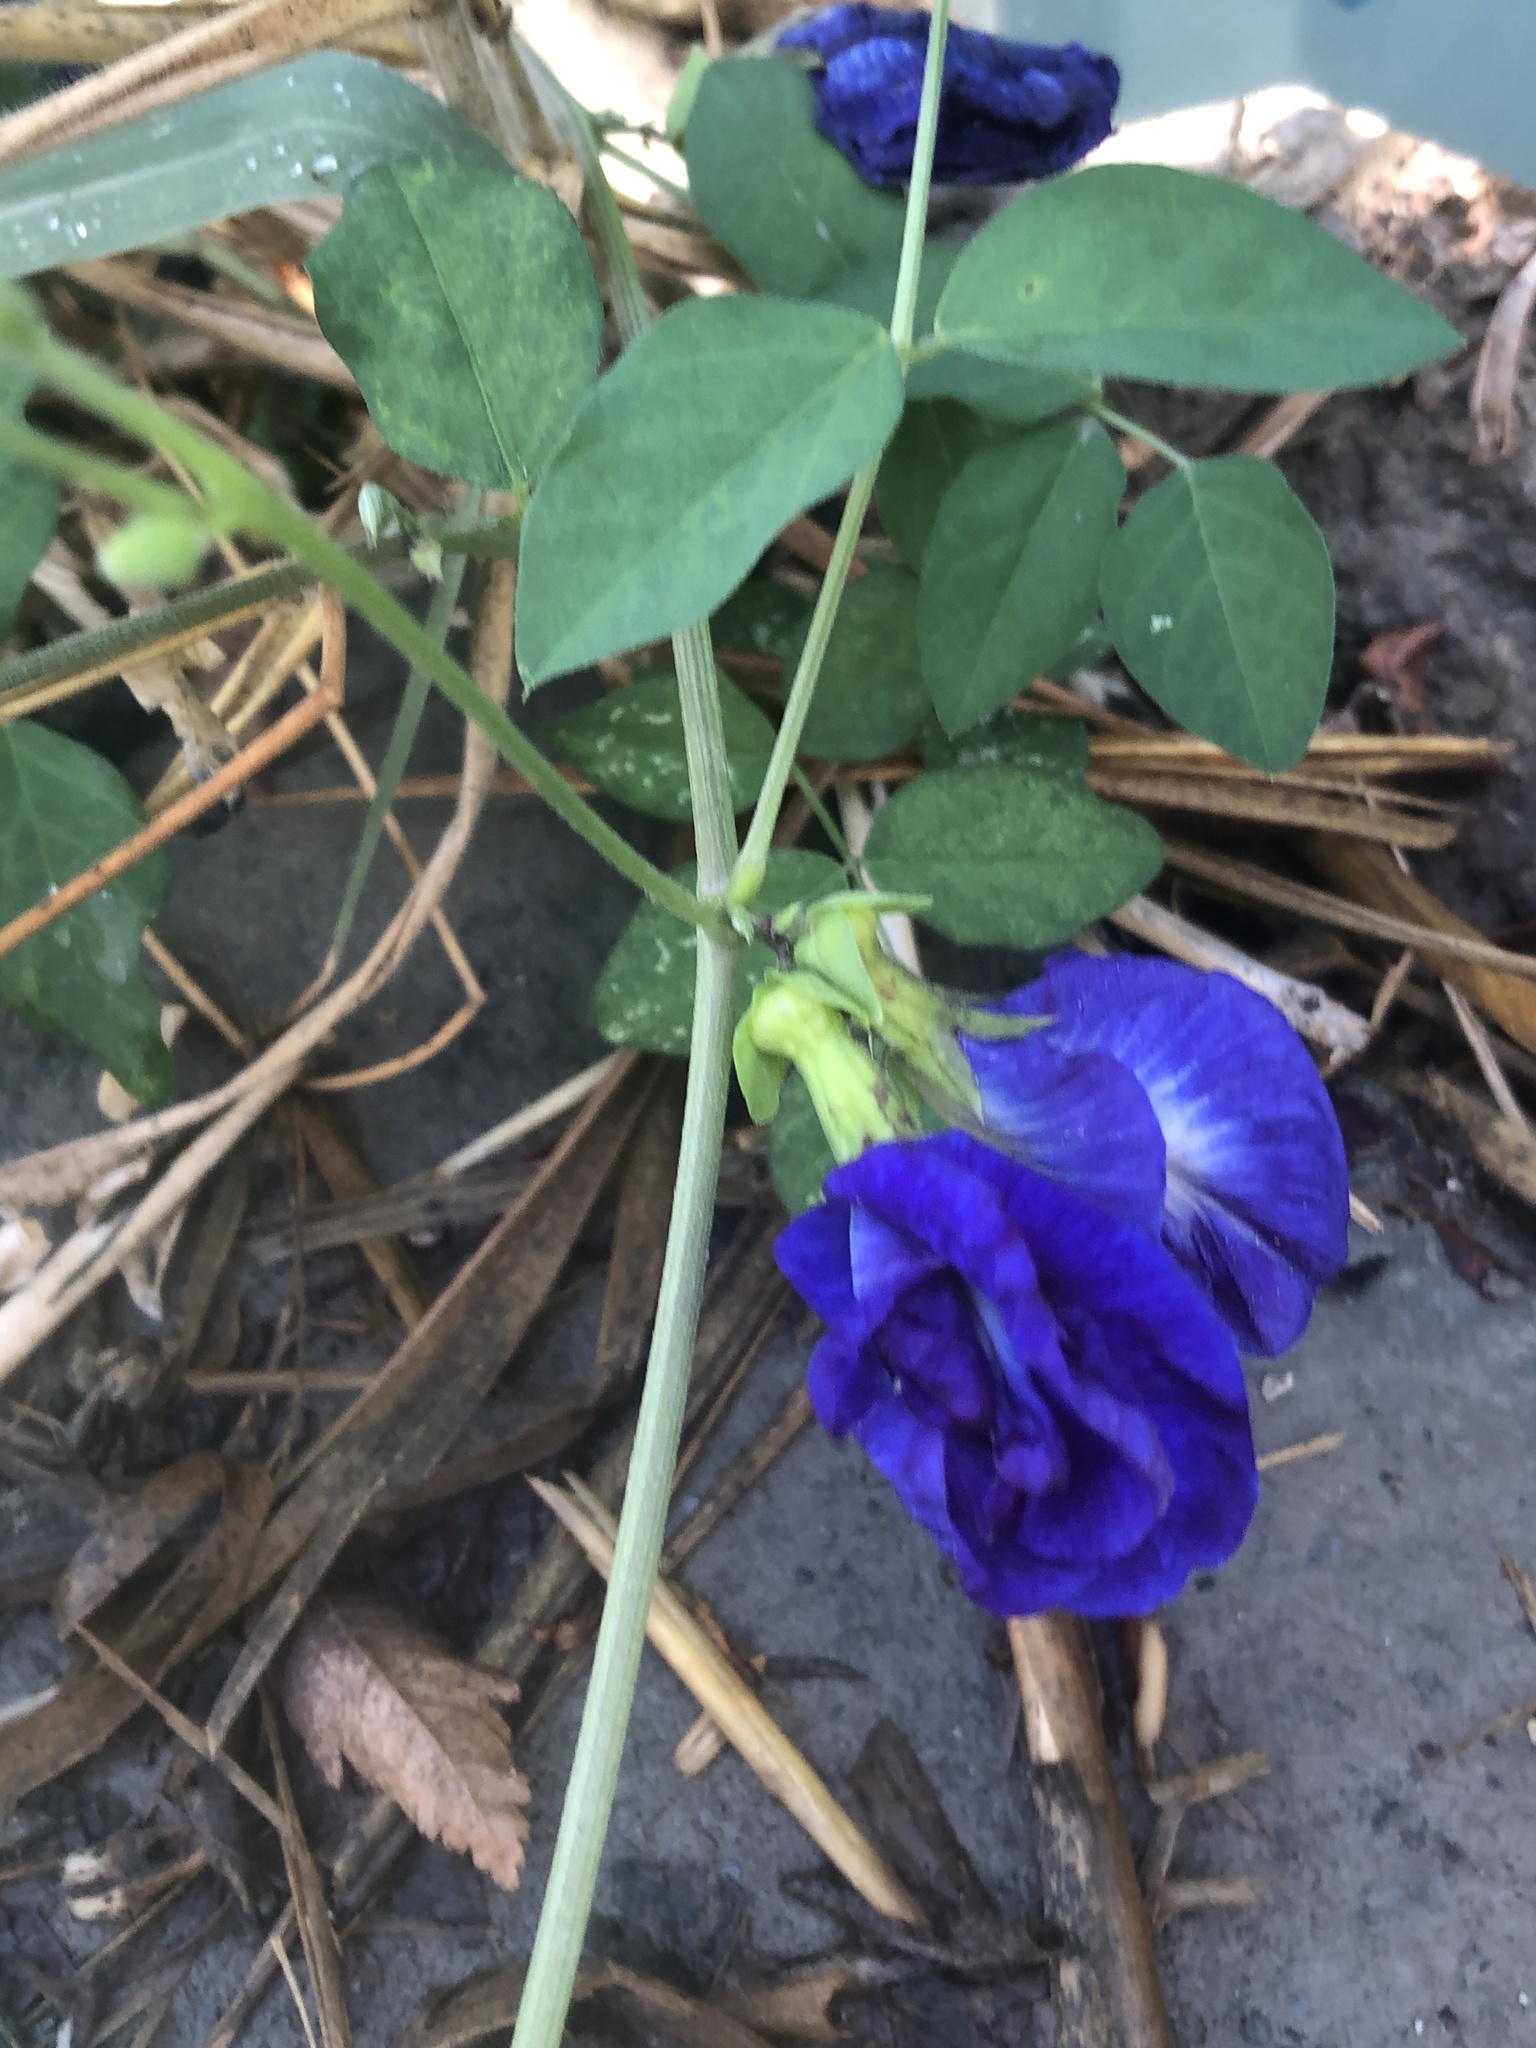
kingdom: Plantae
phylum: Tracheophyta
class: Magnoliopsida
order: Fabales
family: Fabaceae
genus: Clitoria
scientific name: Clitoria ternatea
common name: Asian pigeonwings
